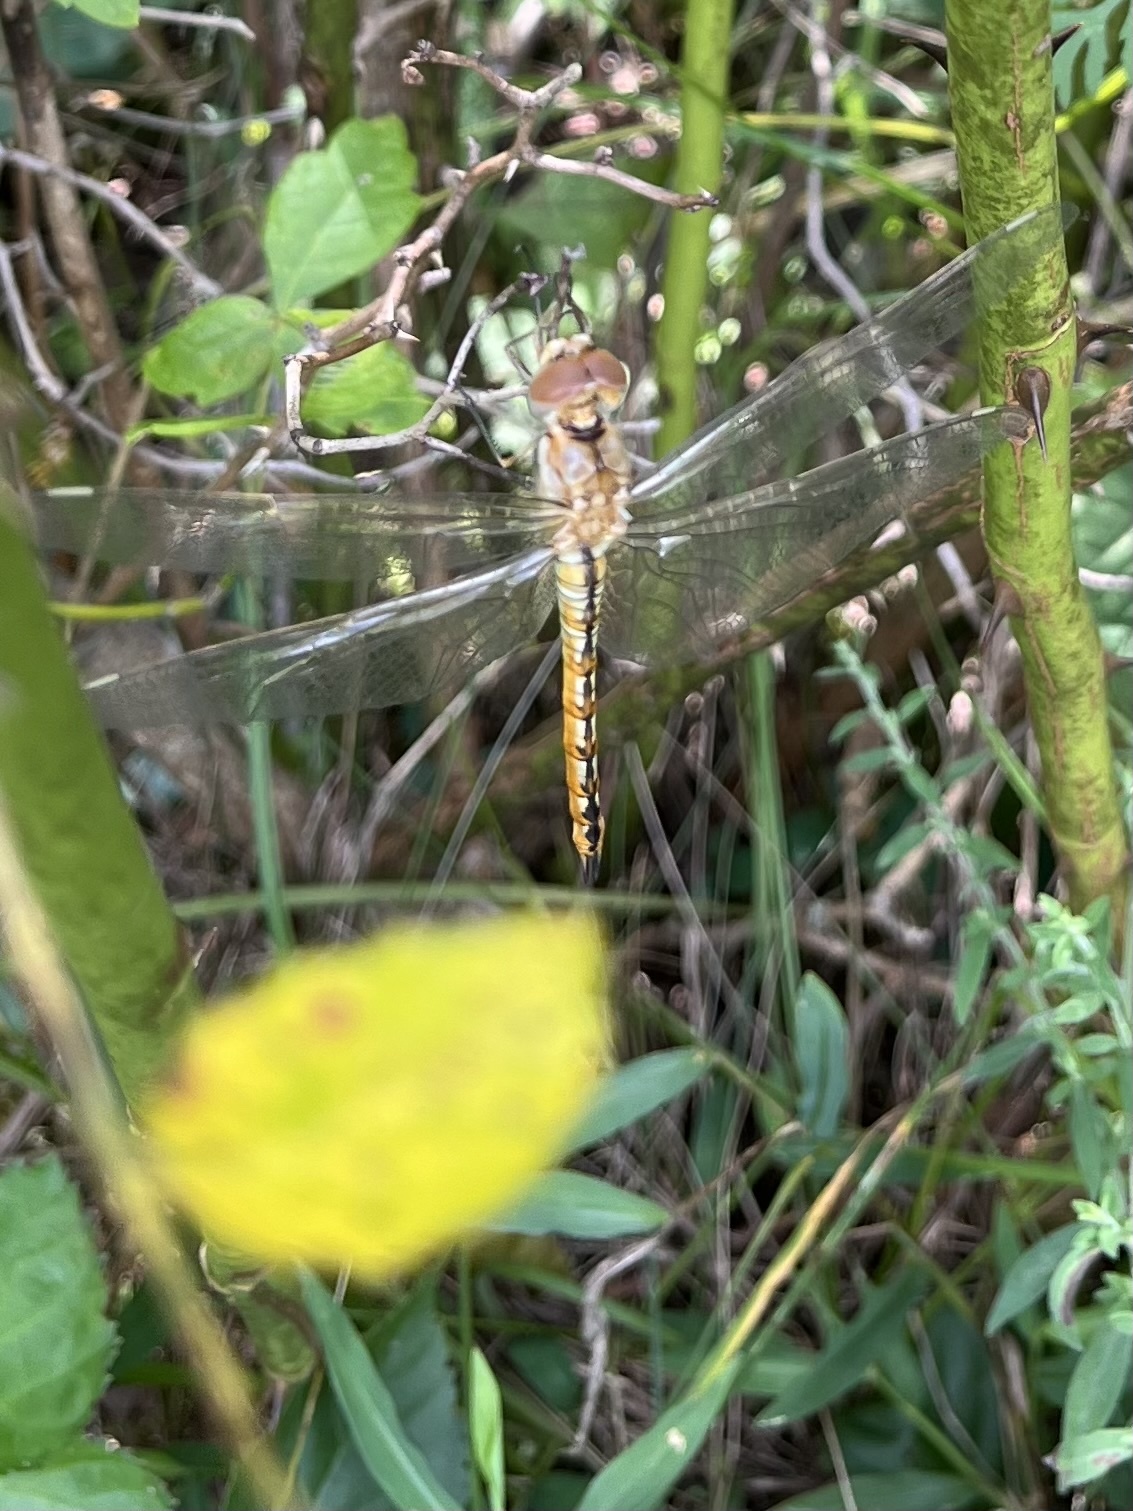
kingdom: Animalia
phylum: Arthropoda
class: Insecta
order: Odonata
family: Libellulidae
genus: Pantala
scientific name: Pantala flavescens
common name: Wandering glider
